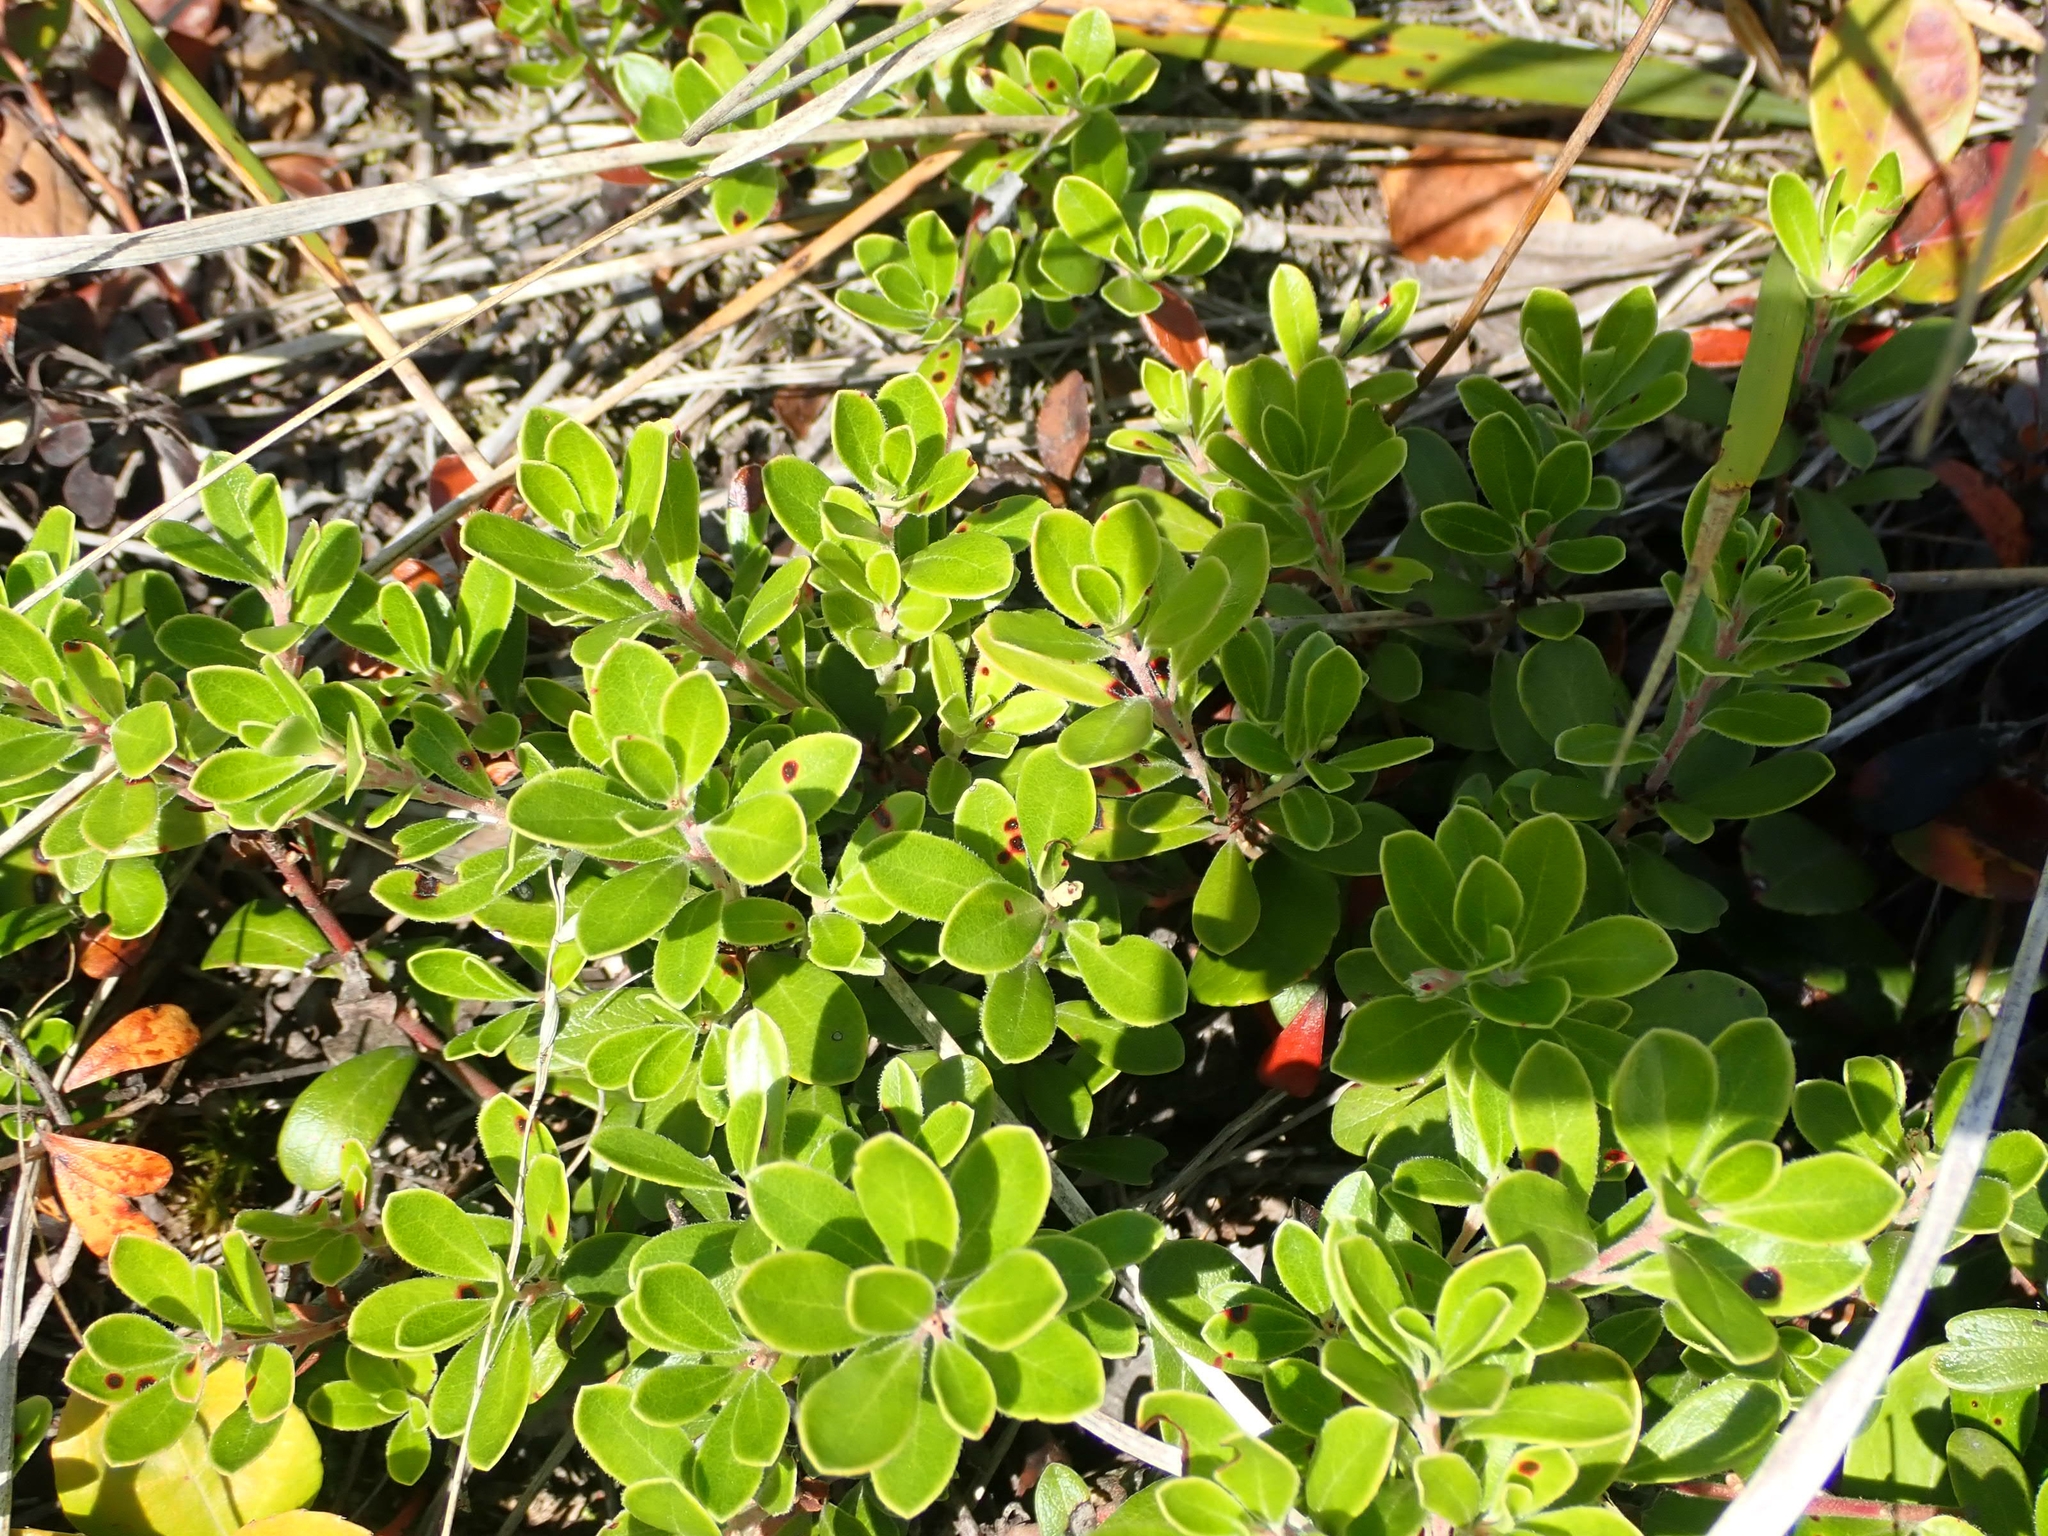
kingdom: Plantae
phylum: Tracheophyta
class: Magnoliopsida
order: Ericales
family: Ericaceae
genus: Arctostaphylos
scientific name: Arctostaphylos uva-ursi
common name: Bearberry
